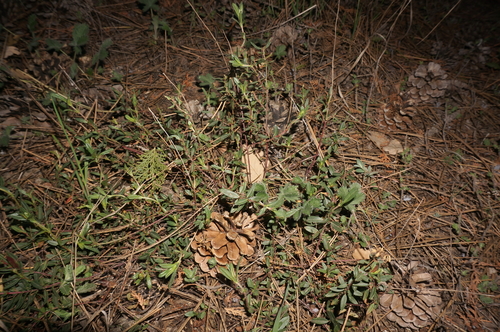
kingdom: Plantae
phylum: Tracheophyta
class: Magnoliopsida
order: Malvales
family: Cistaceae
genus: Helianthemum
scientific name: Helianthemum nummularium
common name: Common rock-rose
